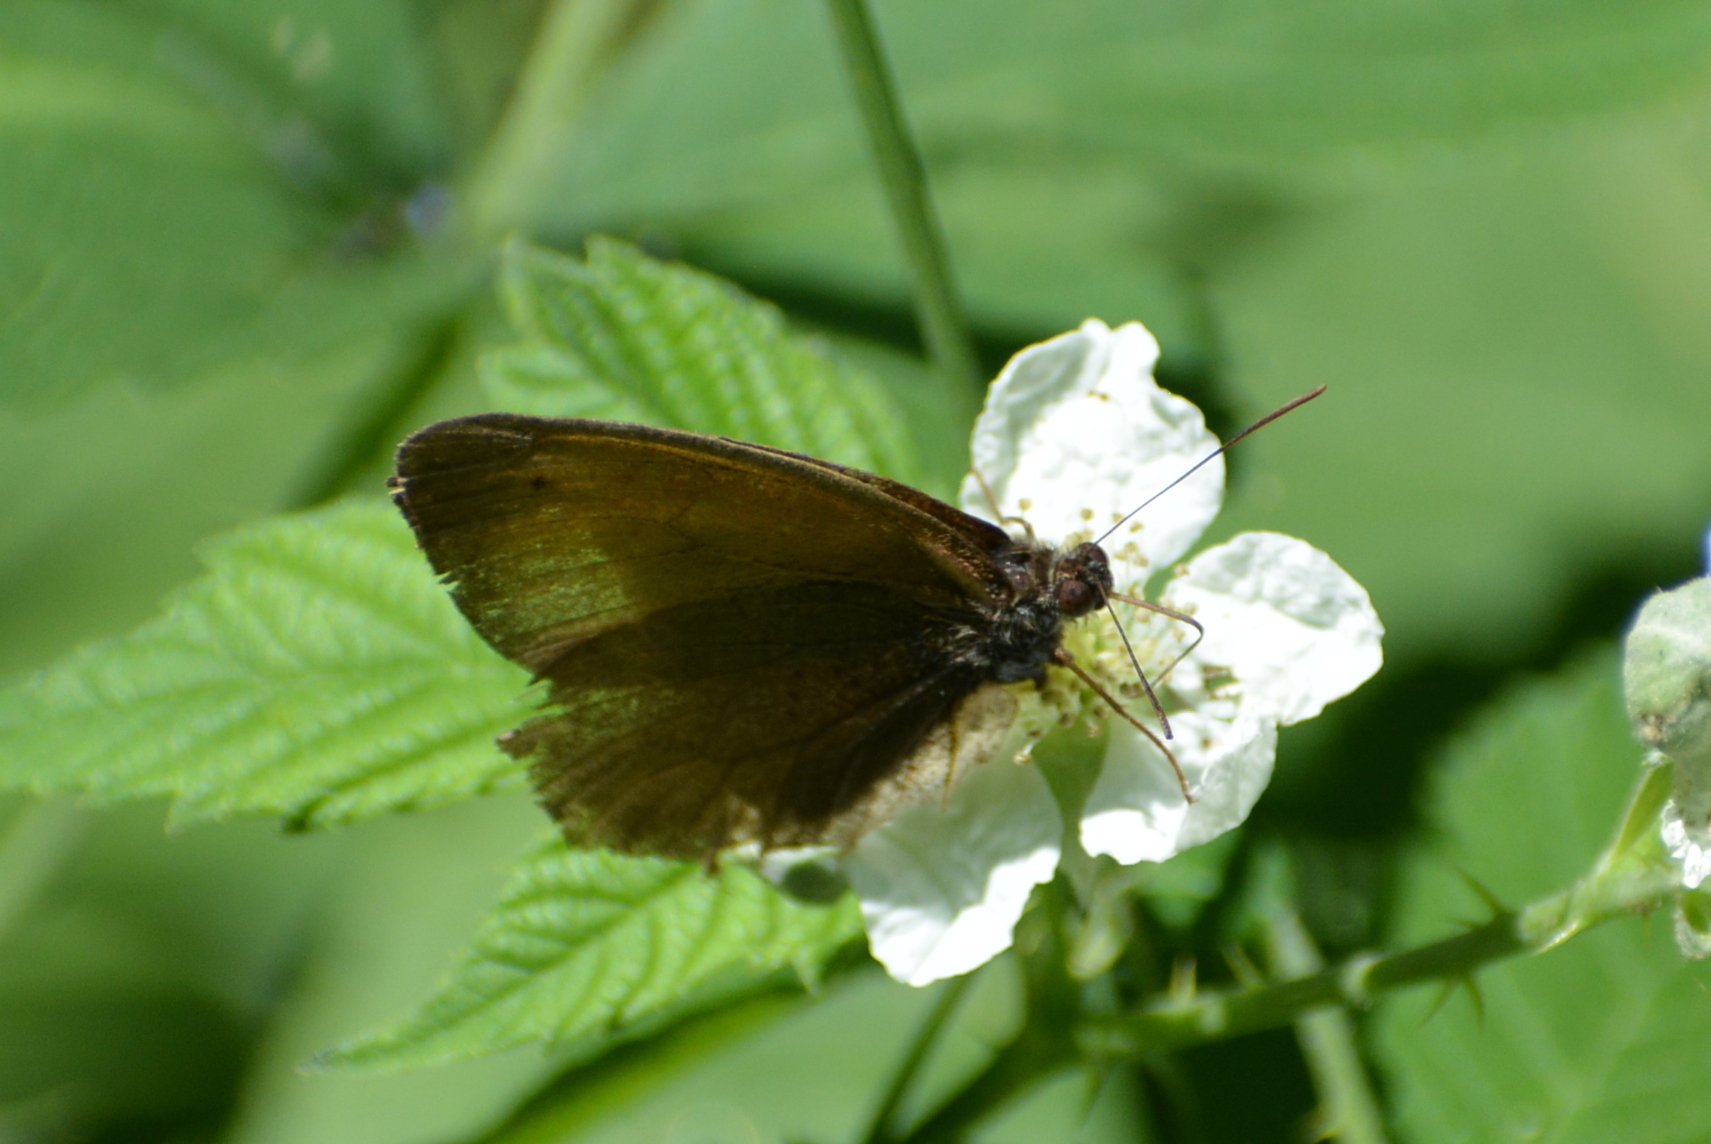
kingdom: Animalia
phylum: Arthropoda
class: Insecta
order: Lepidoptera
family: Nymphalidae
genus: Maniola
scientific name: Maniola jurtina
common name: Meadow brown
